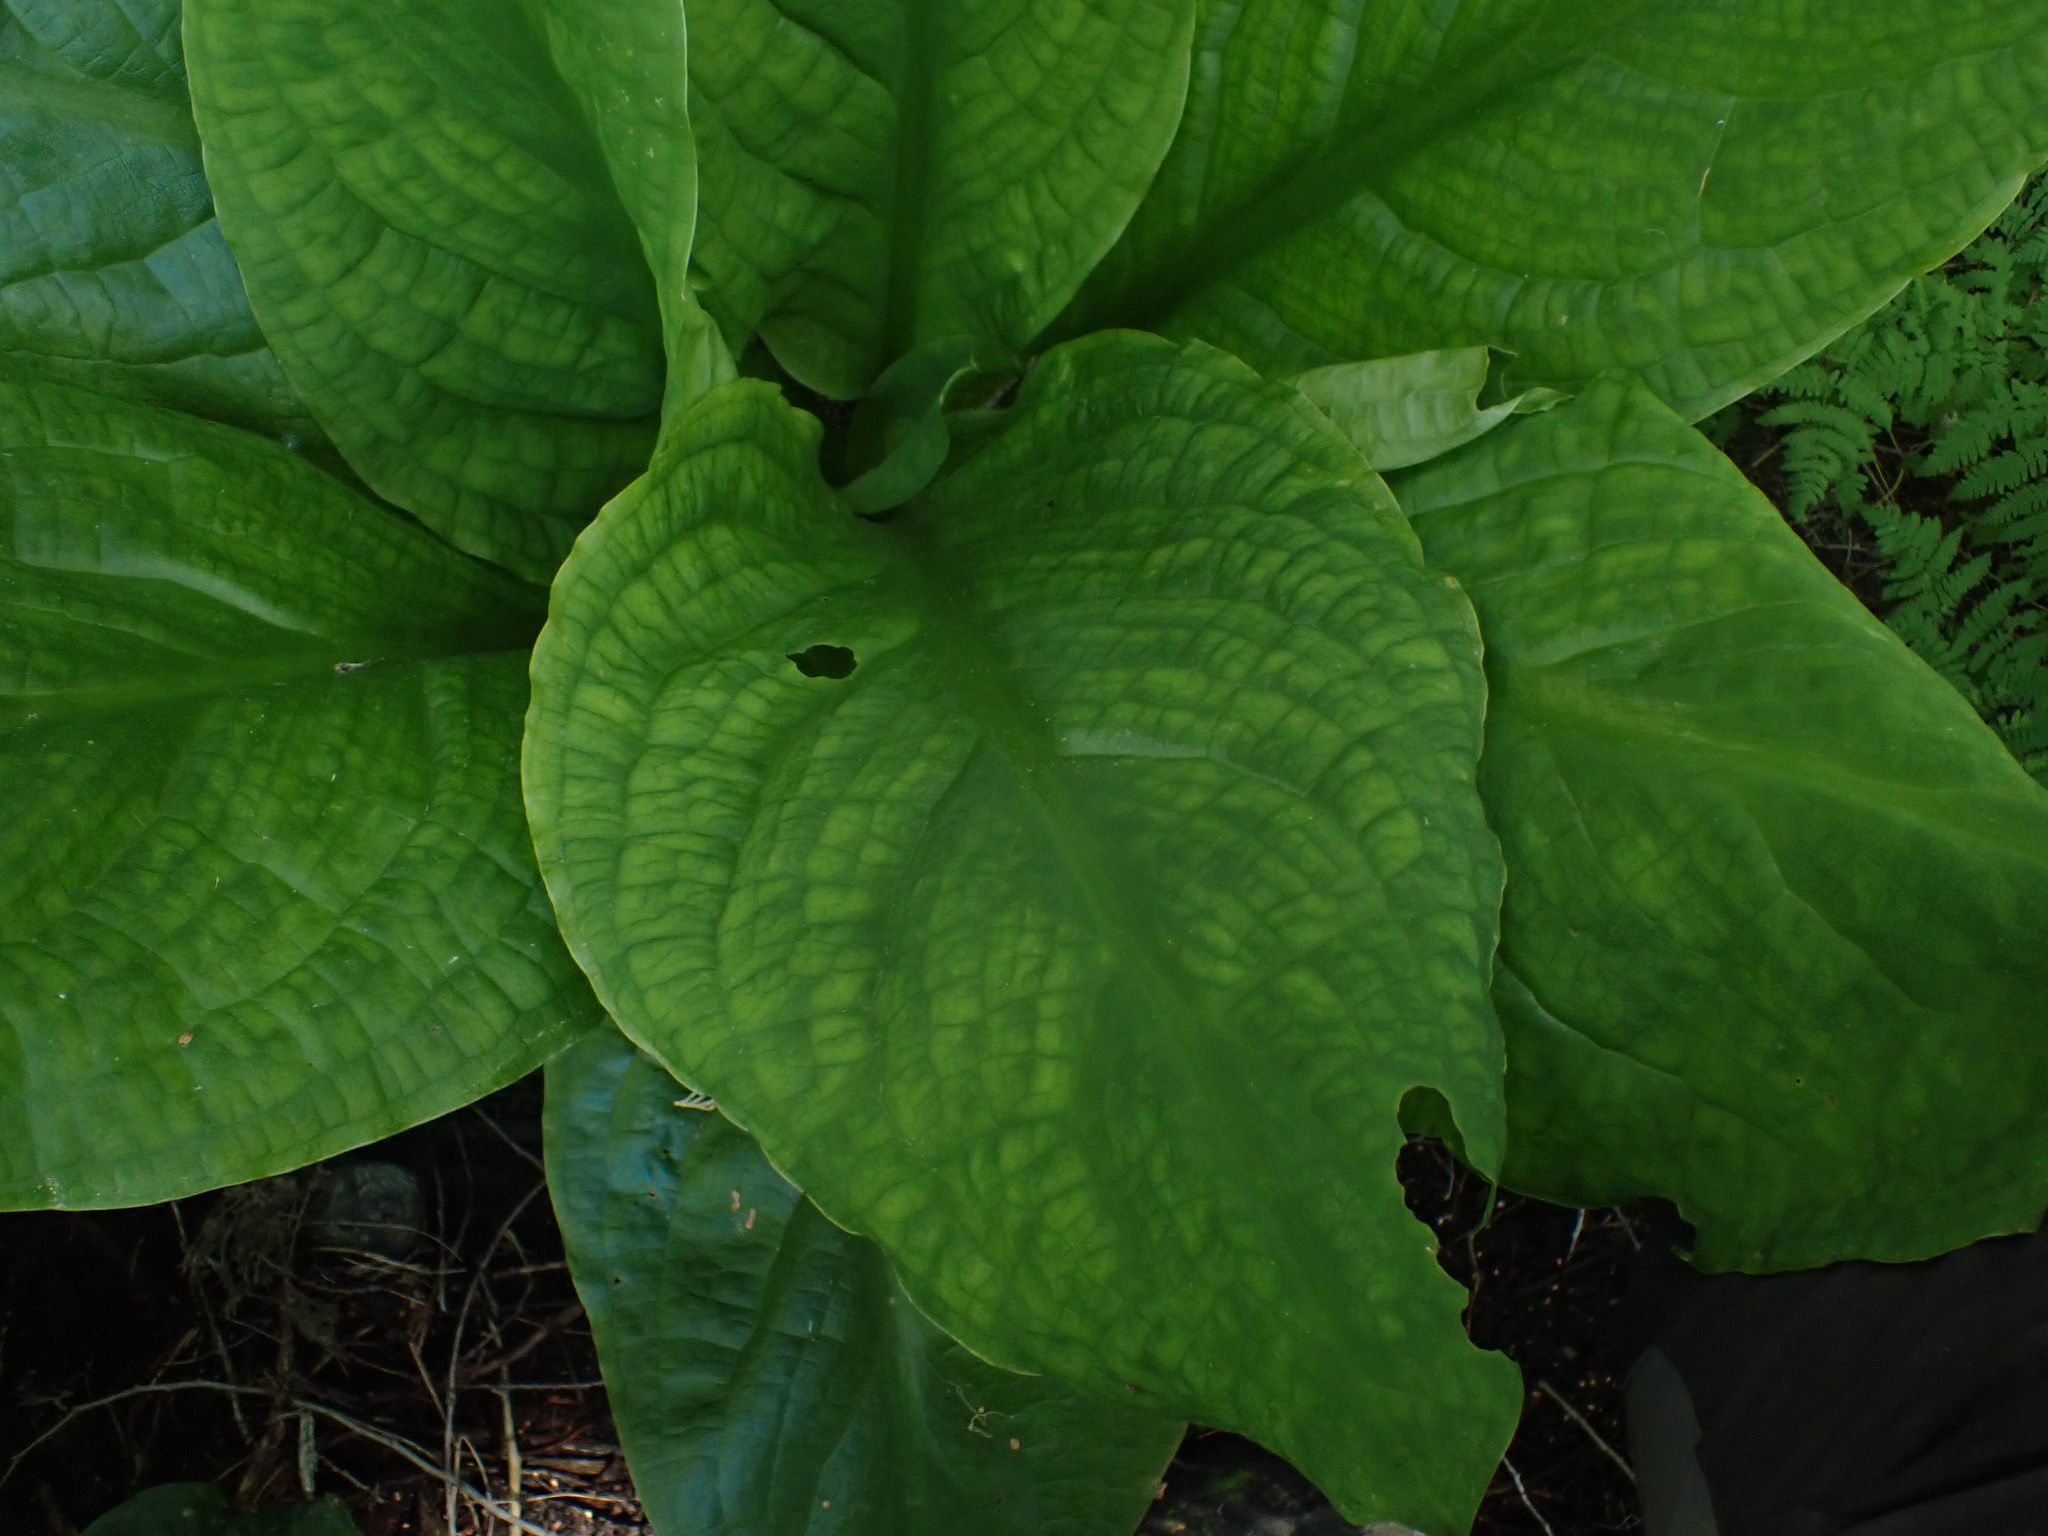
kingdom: Plantae
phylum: Tracheophyta
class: Liliopsida
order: Alismatales
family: Araceae
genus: Lysichiton
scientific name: Lysichiton americanus
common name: American skunk cabbage
